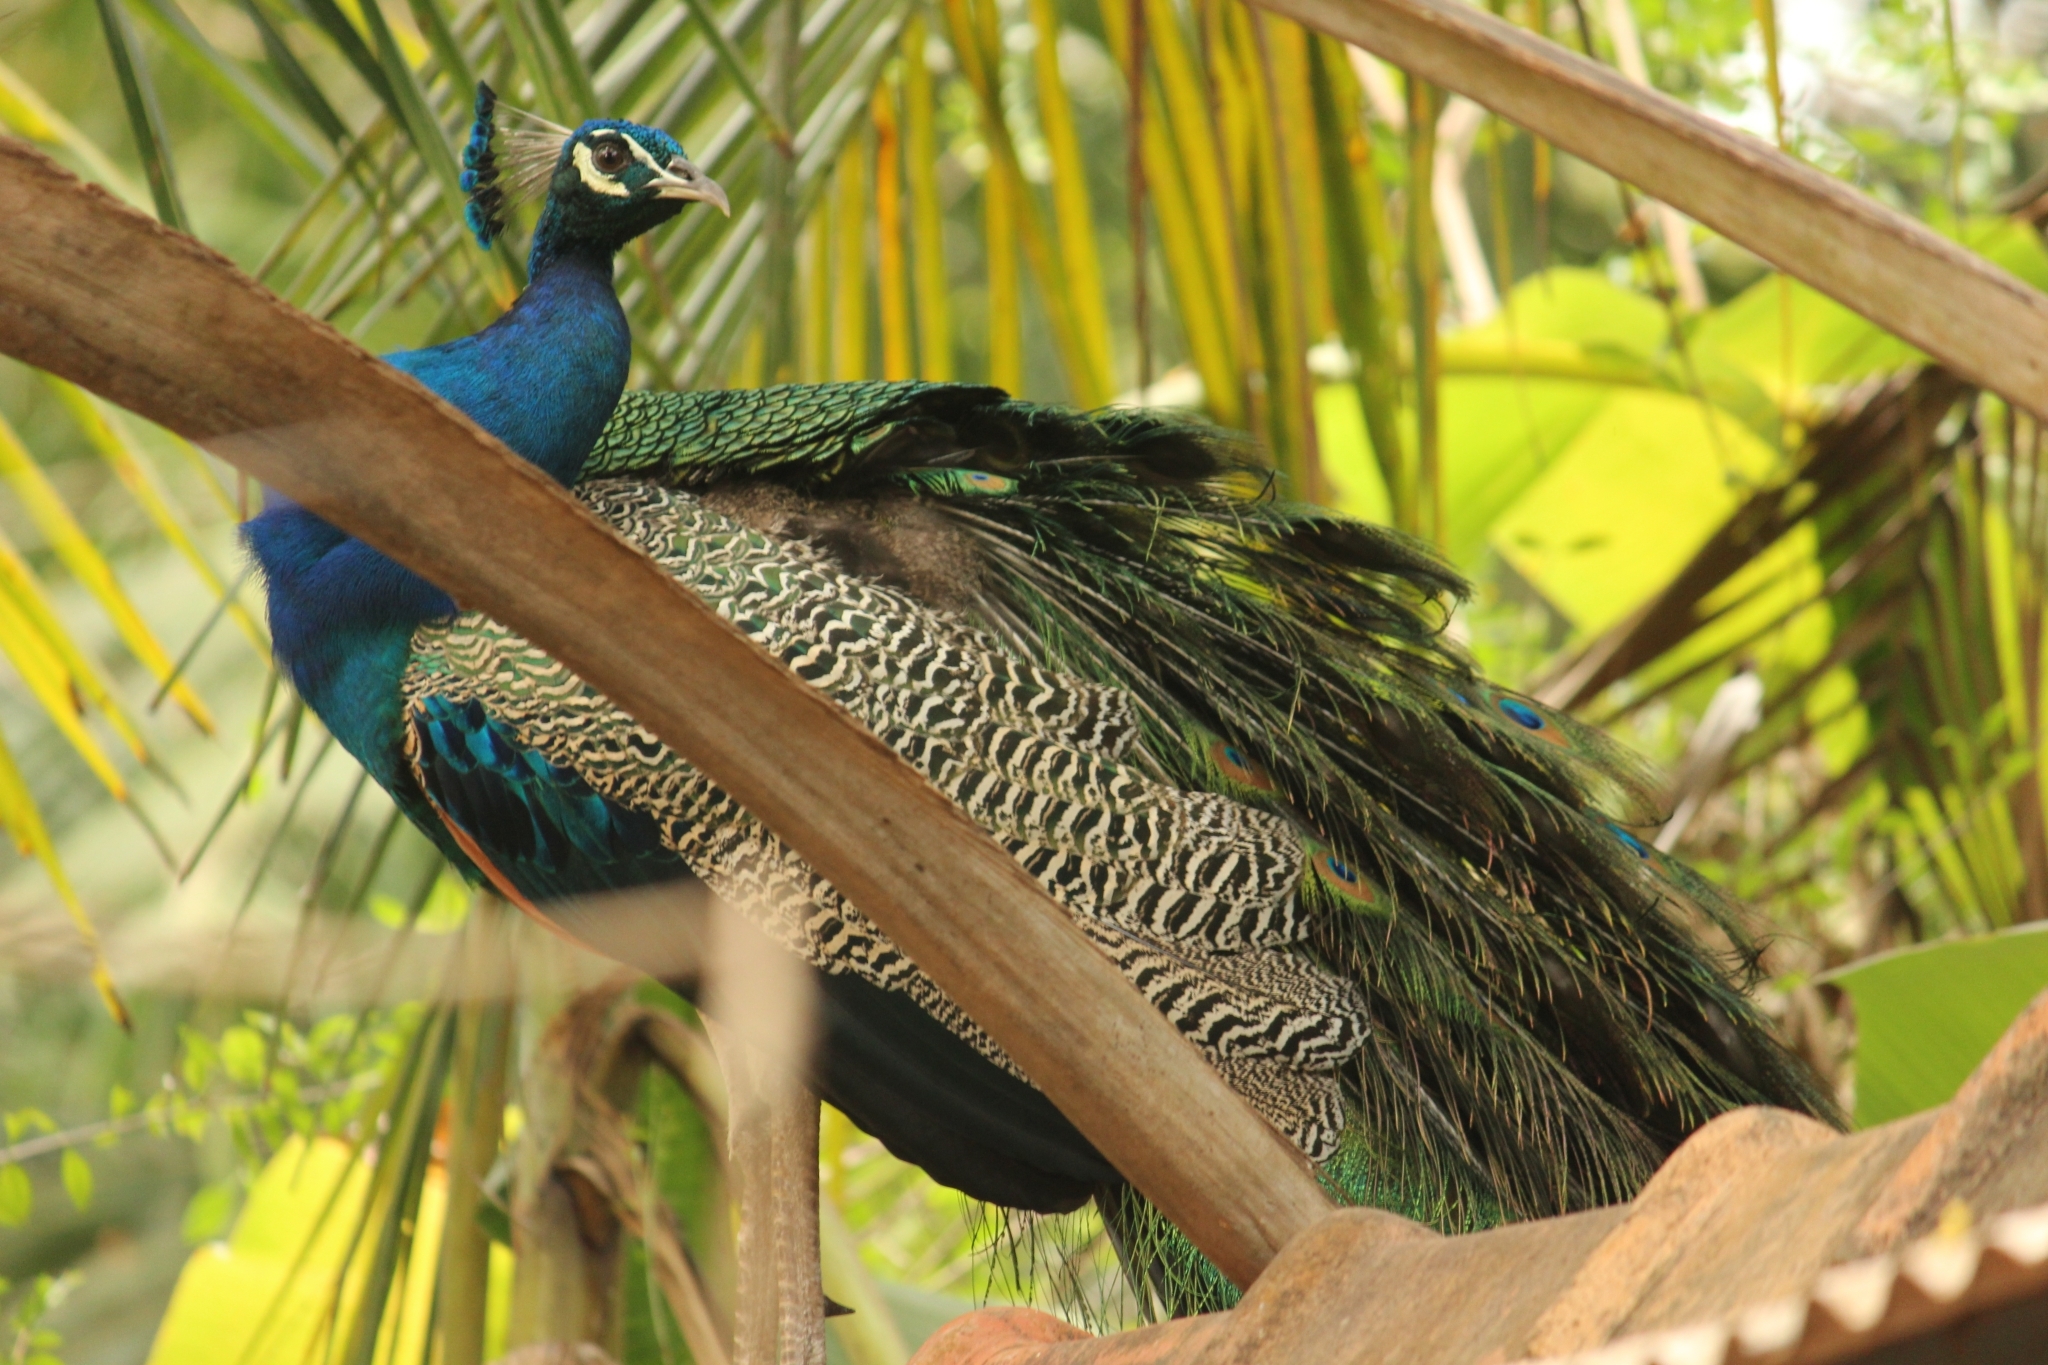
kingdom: Animalia
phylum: Chordata
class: Aves
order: Galliformes
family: Phasianidae
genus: Pavo
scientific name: Pavo cristatus
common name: Indian peafowl
